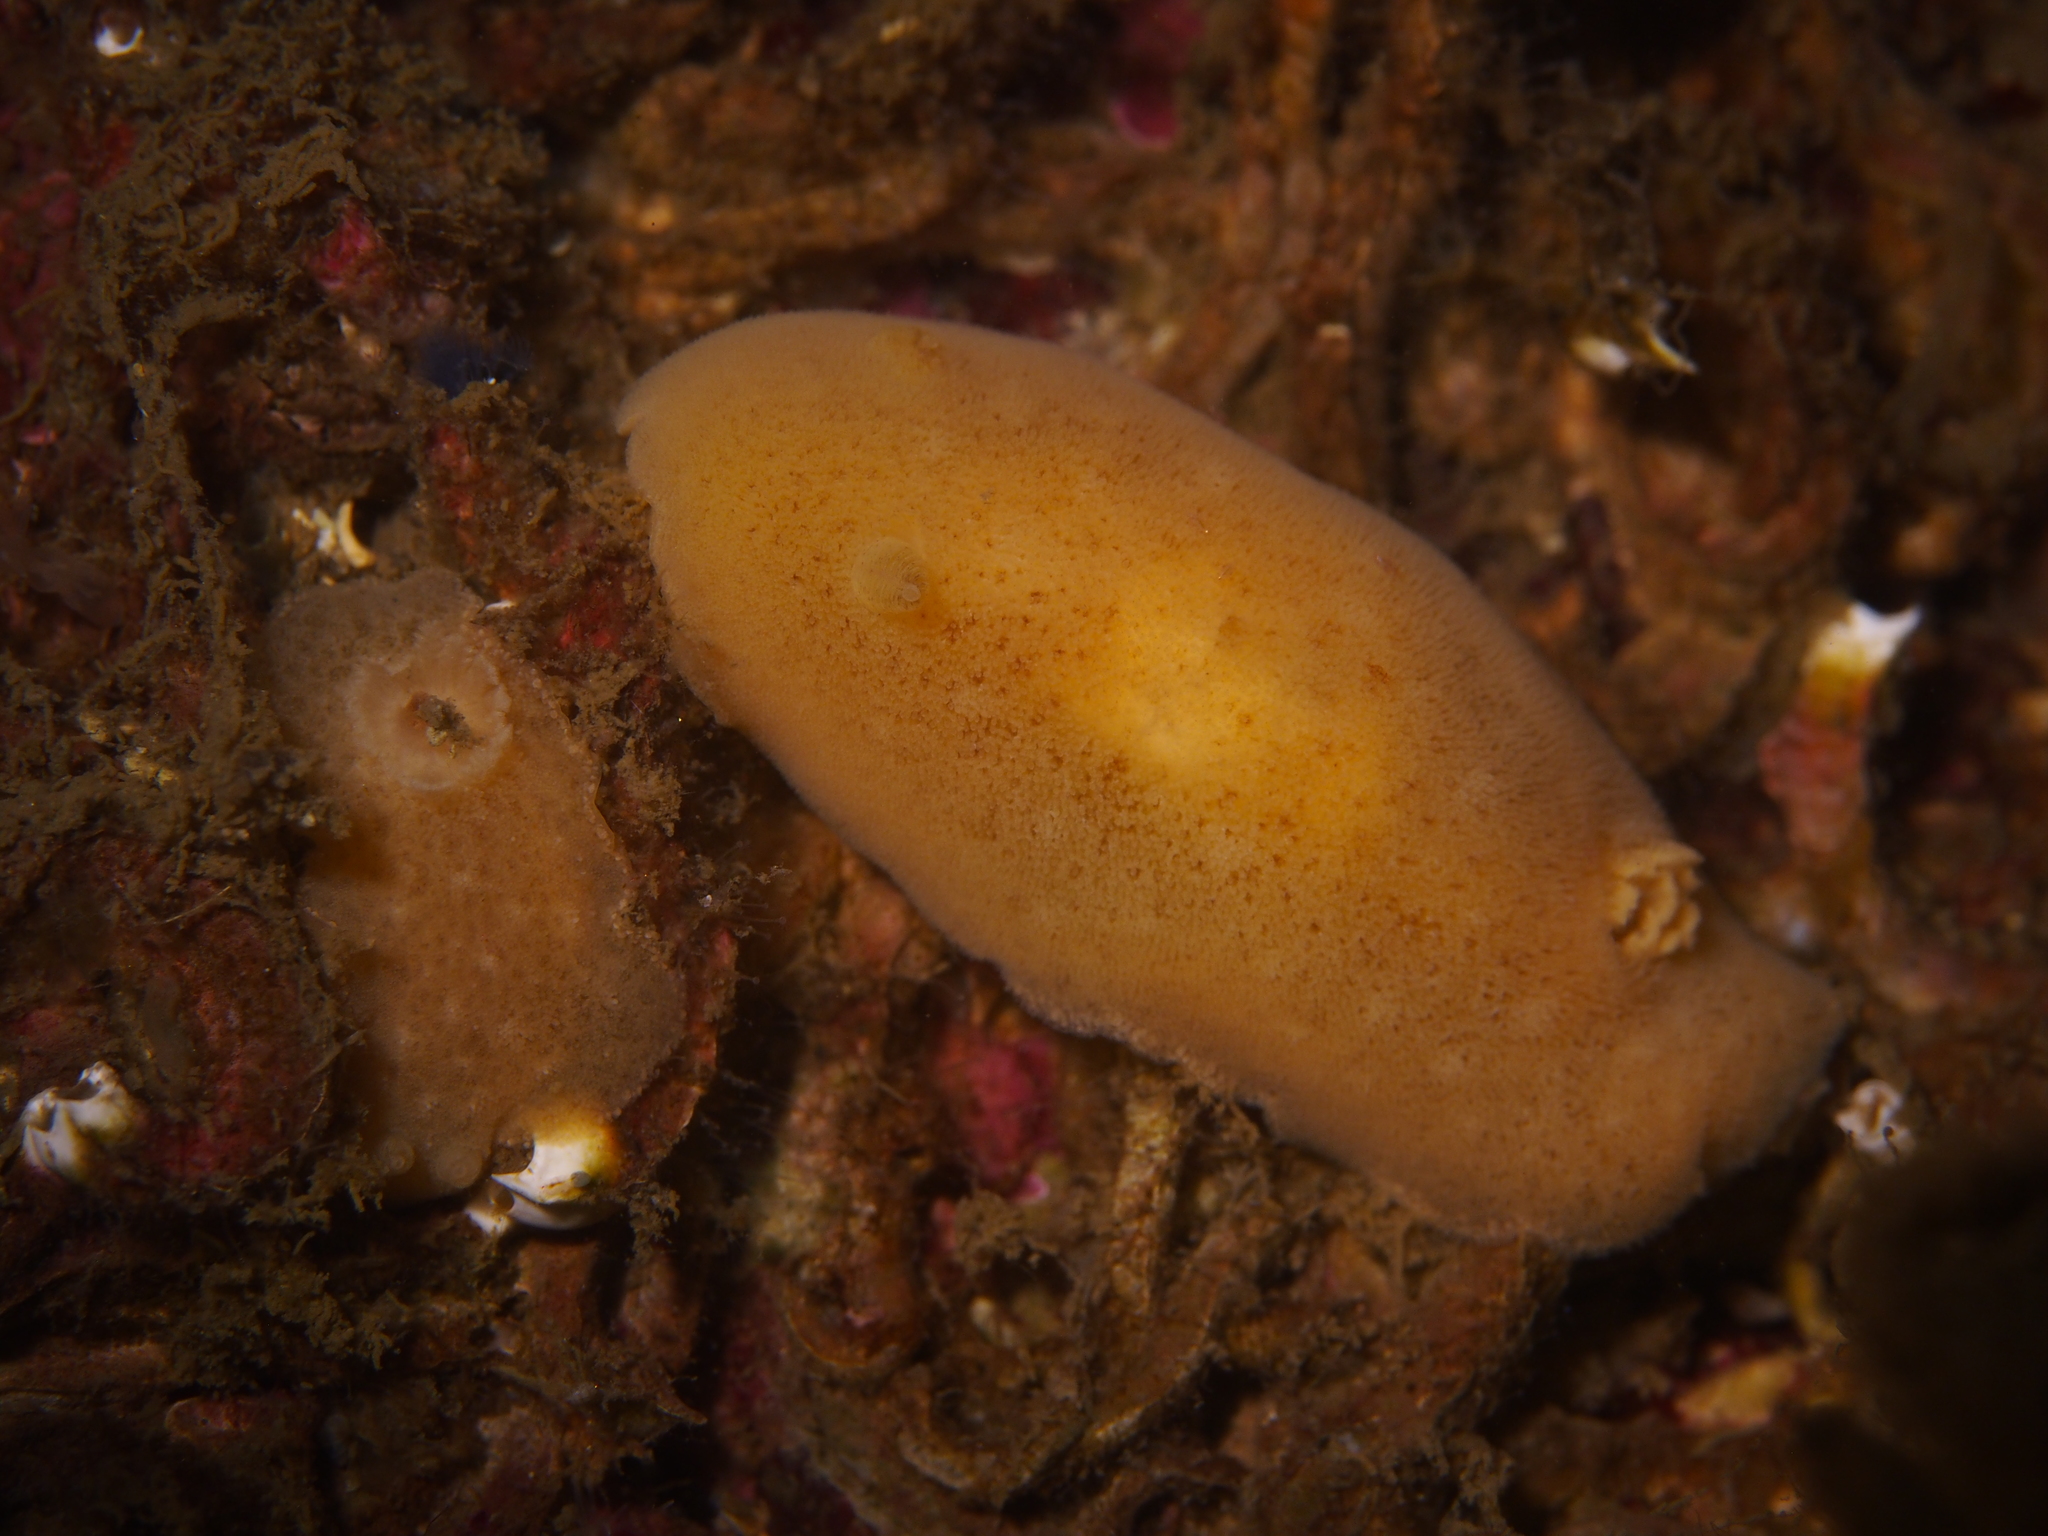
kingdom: Animalia
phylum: Mollusca
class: Gastropoda
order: Nudibranchia
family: Discodorididae
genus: Jorunna
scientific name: Jorunna tomentosa
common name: Grey sea slug
